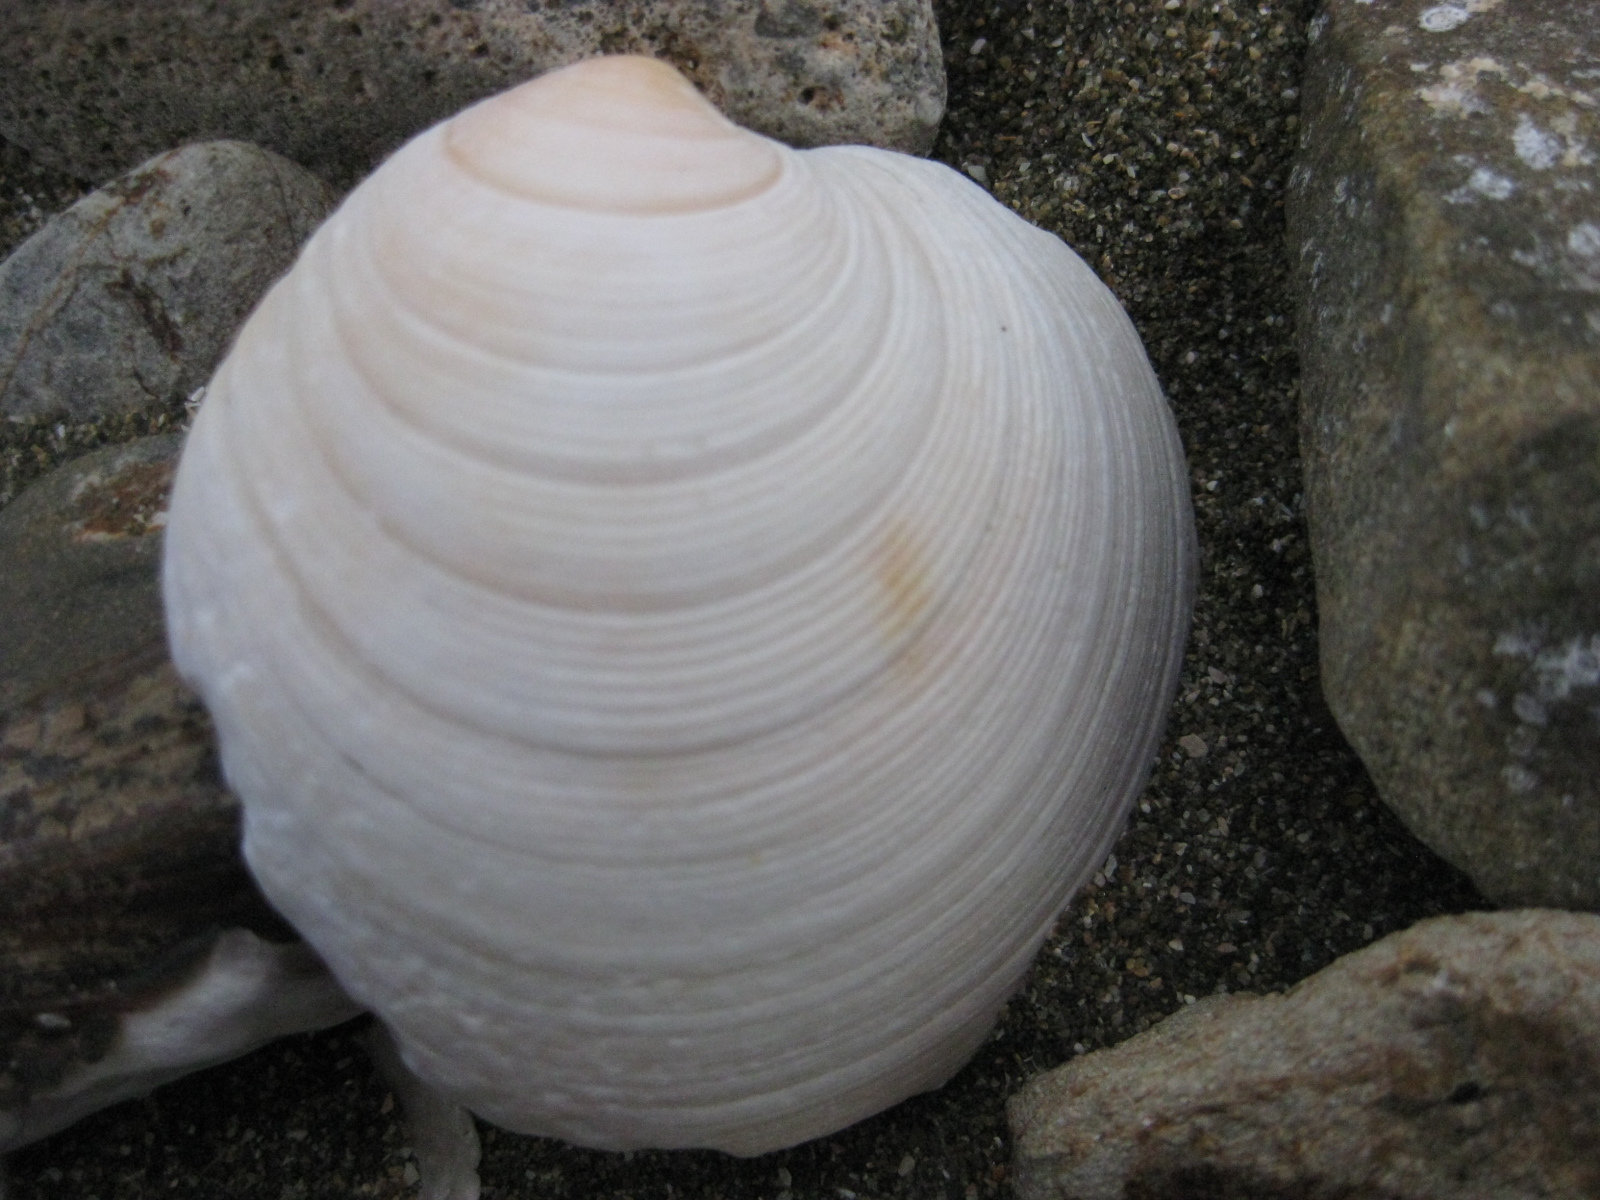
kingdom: Animalia
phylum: Mollusca
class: Bivalvia
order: Venerida
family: Veneridae
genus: Dosinia
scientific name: Dosinia subrosea
